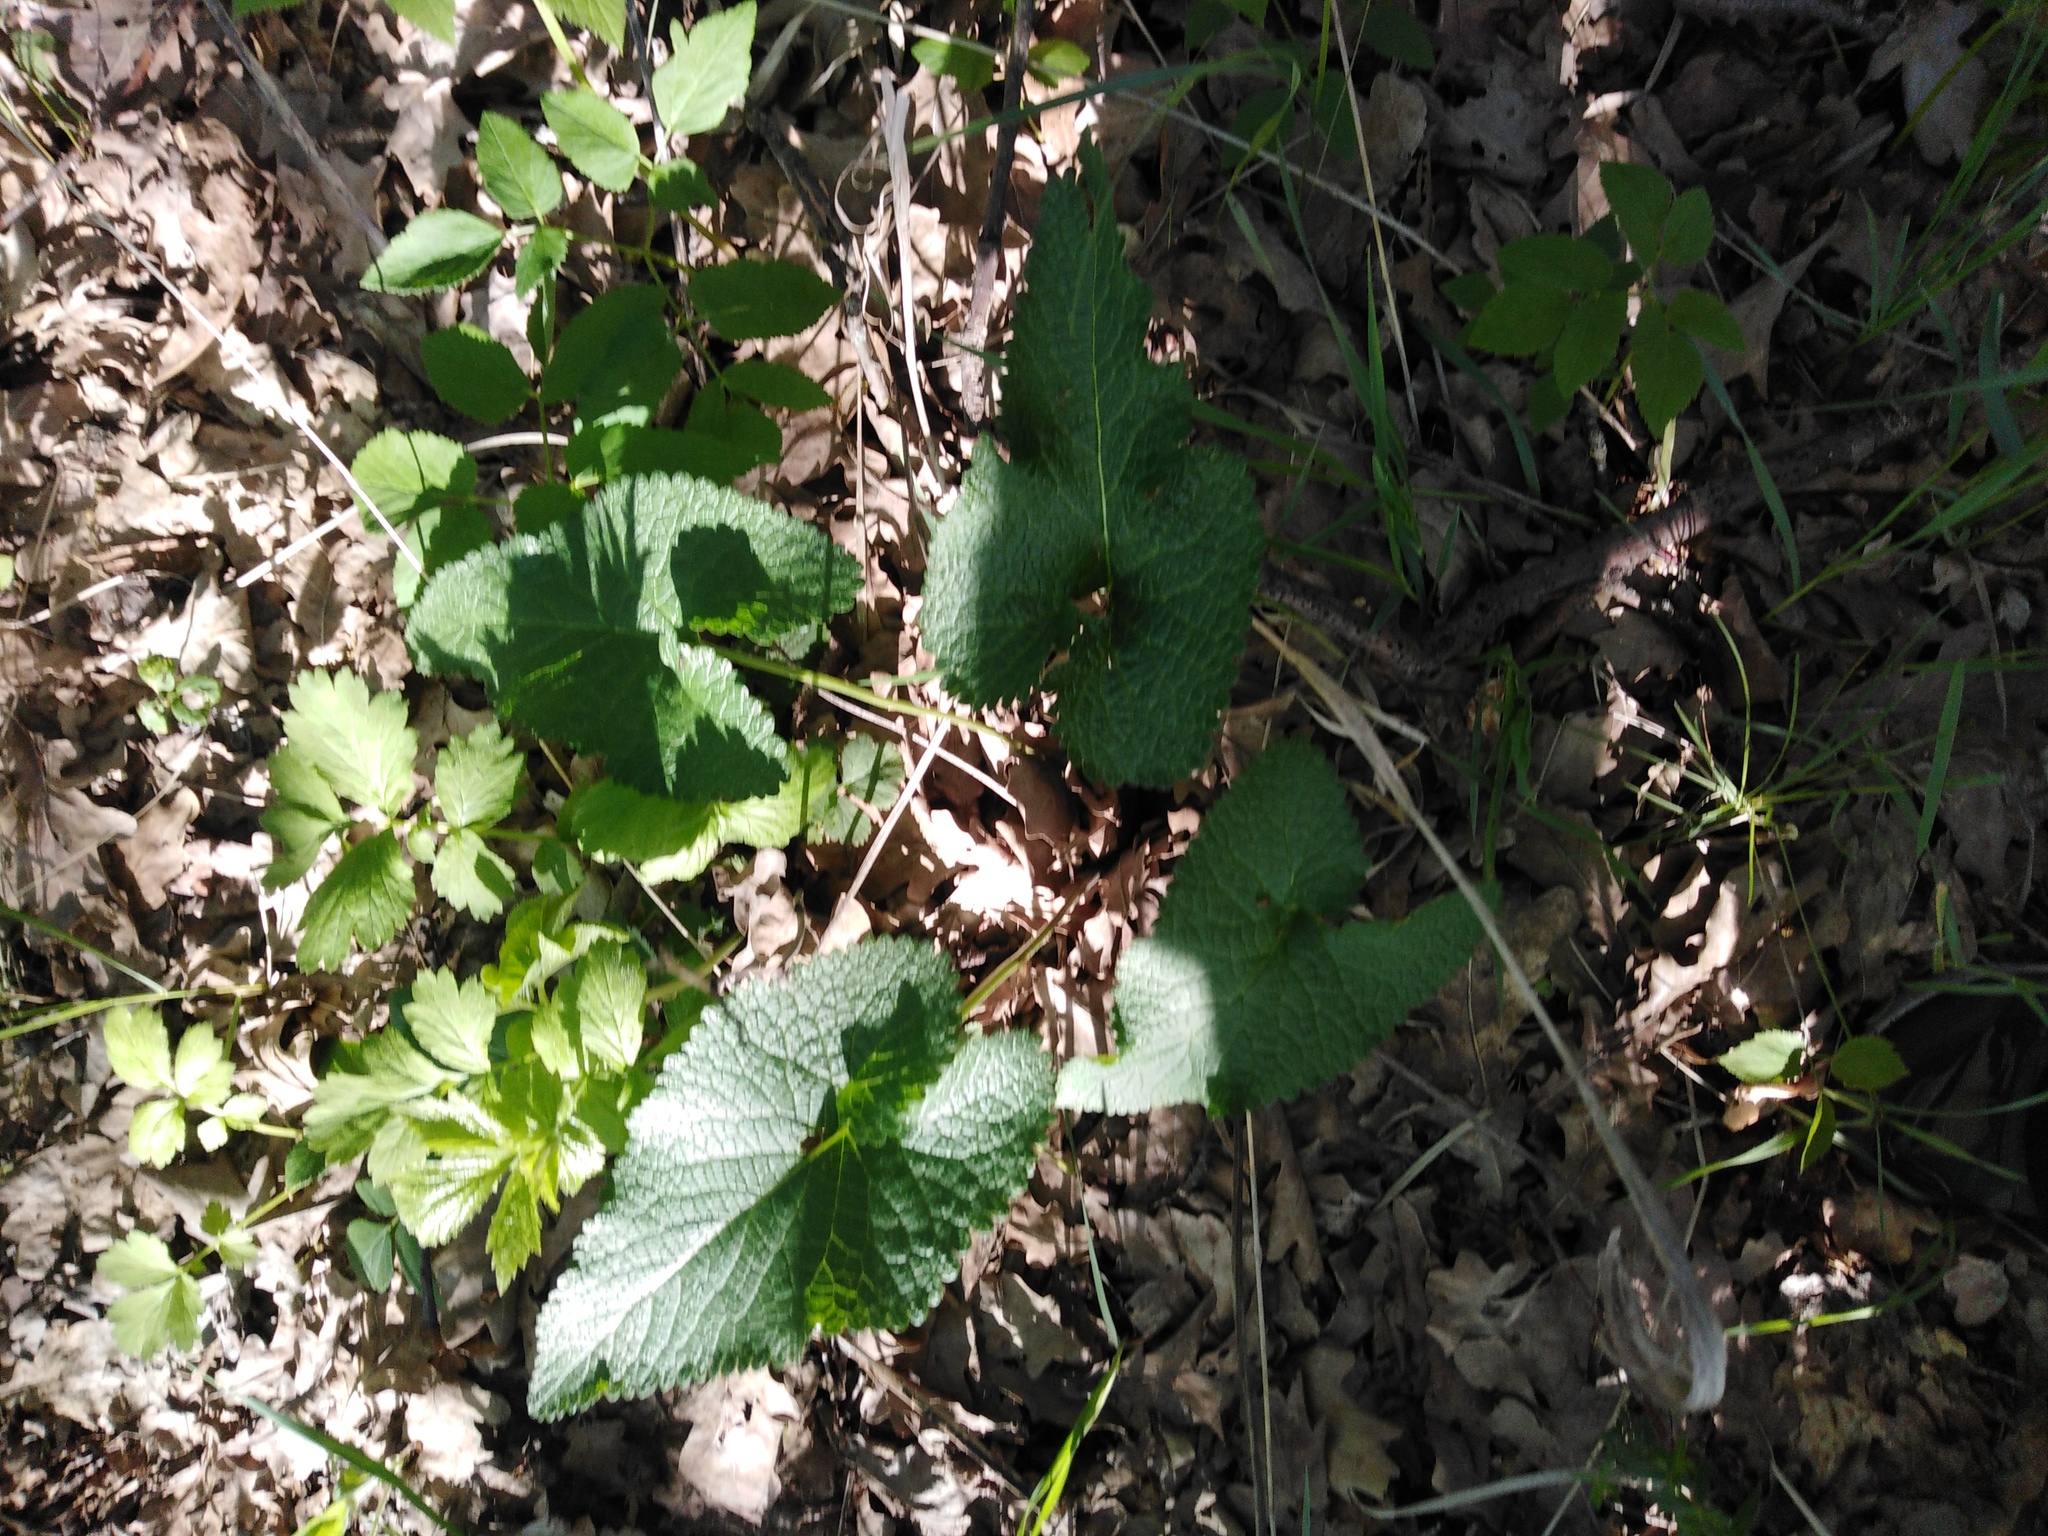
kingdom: Plantae
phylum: Tracheophyta
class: Magnoliopsida
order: Lamiales
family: Lamiaceae
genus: Phlomoides
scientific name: Phlomoides tuberosa
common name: Tuberous jerusalem sage
